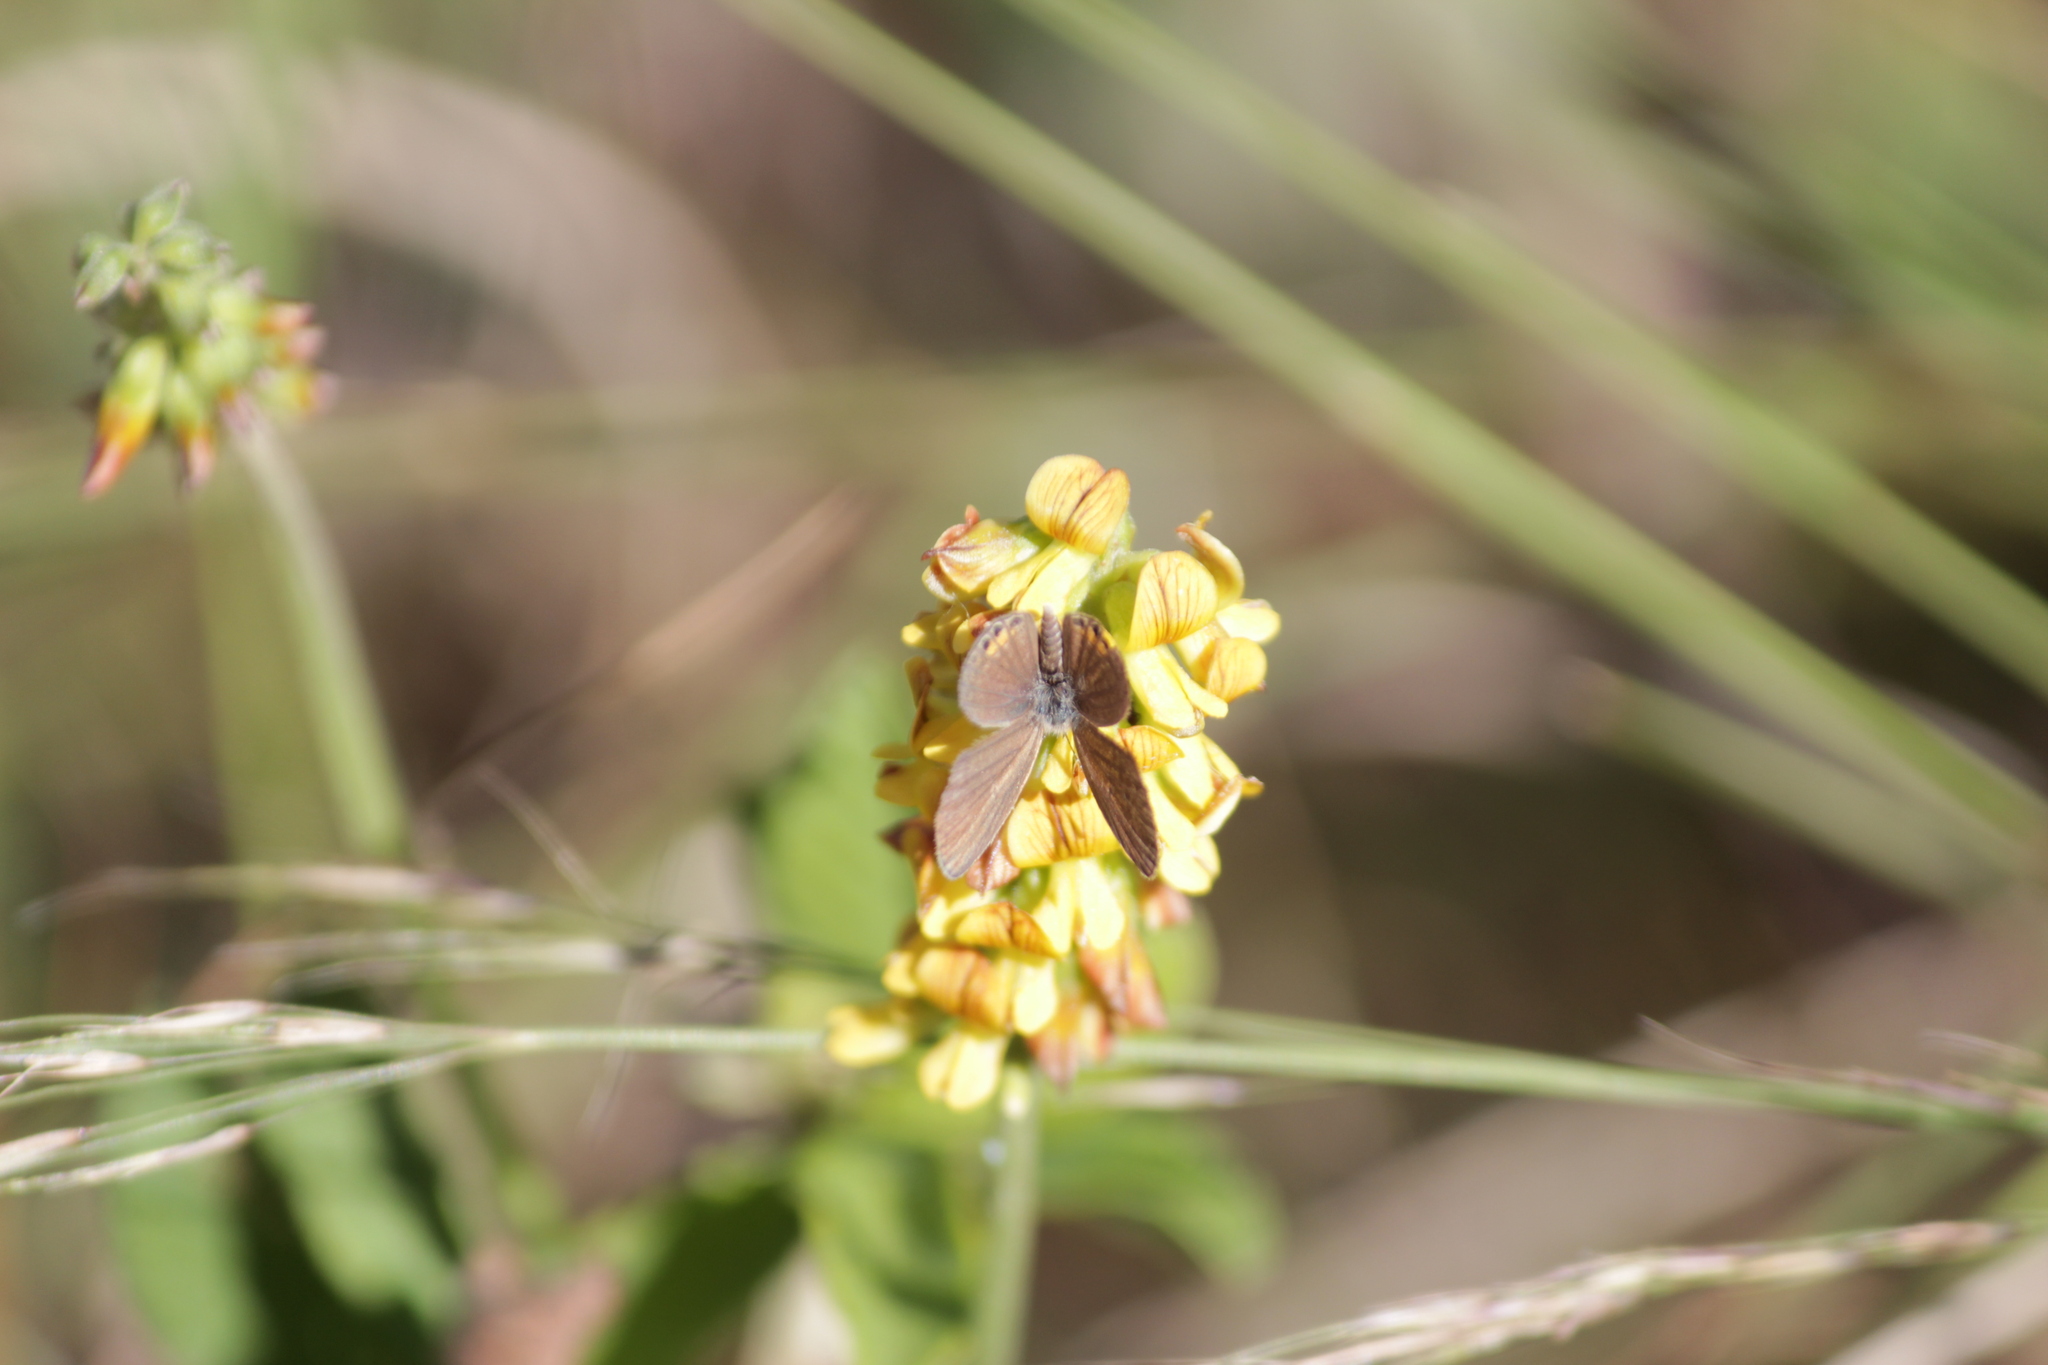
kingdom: Animalia
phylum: Arthropoda
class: Insecta
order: Lepidoptera
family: Lycaenidae
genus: Freyeria
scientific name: Freyeria trochylus
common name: Grass jewel
